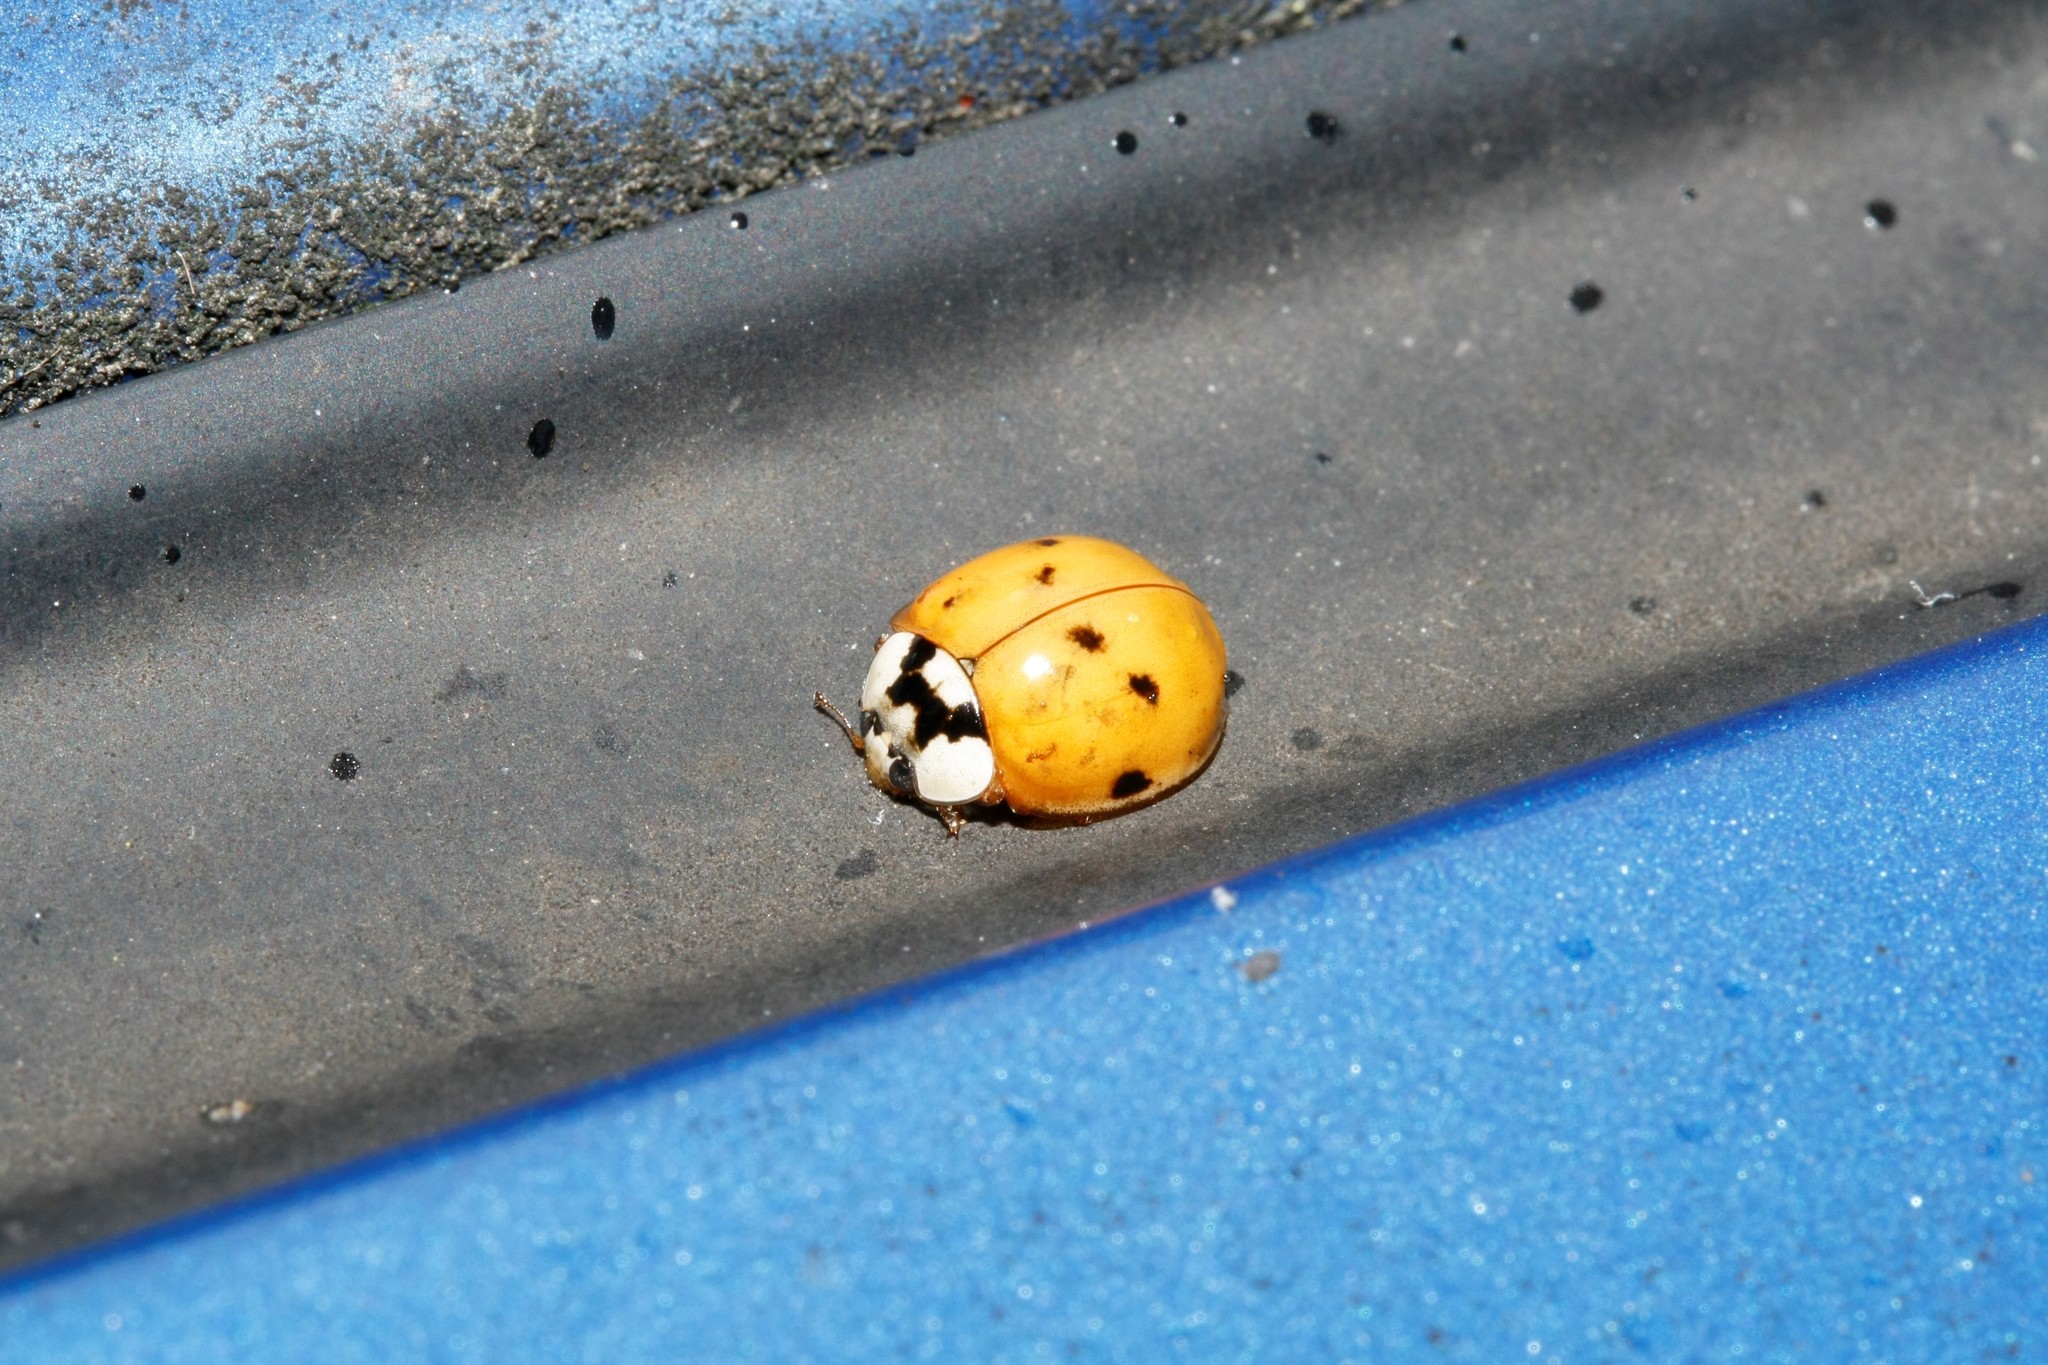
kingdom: Animalia
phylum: Arthropoda
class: Insecta
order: Coleoptera
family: Coccinellidae
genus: Harmonia
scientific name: Harmonia axyridis
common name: Harlequin ladybird
